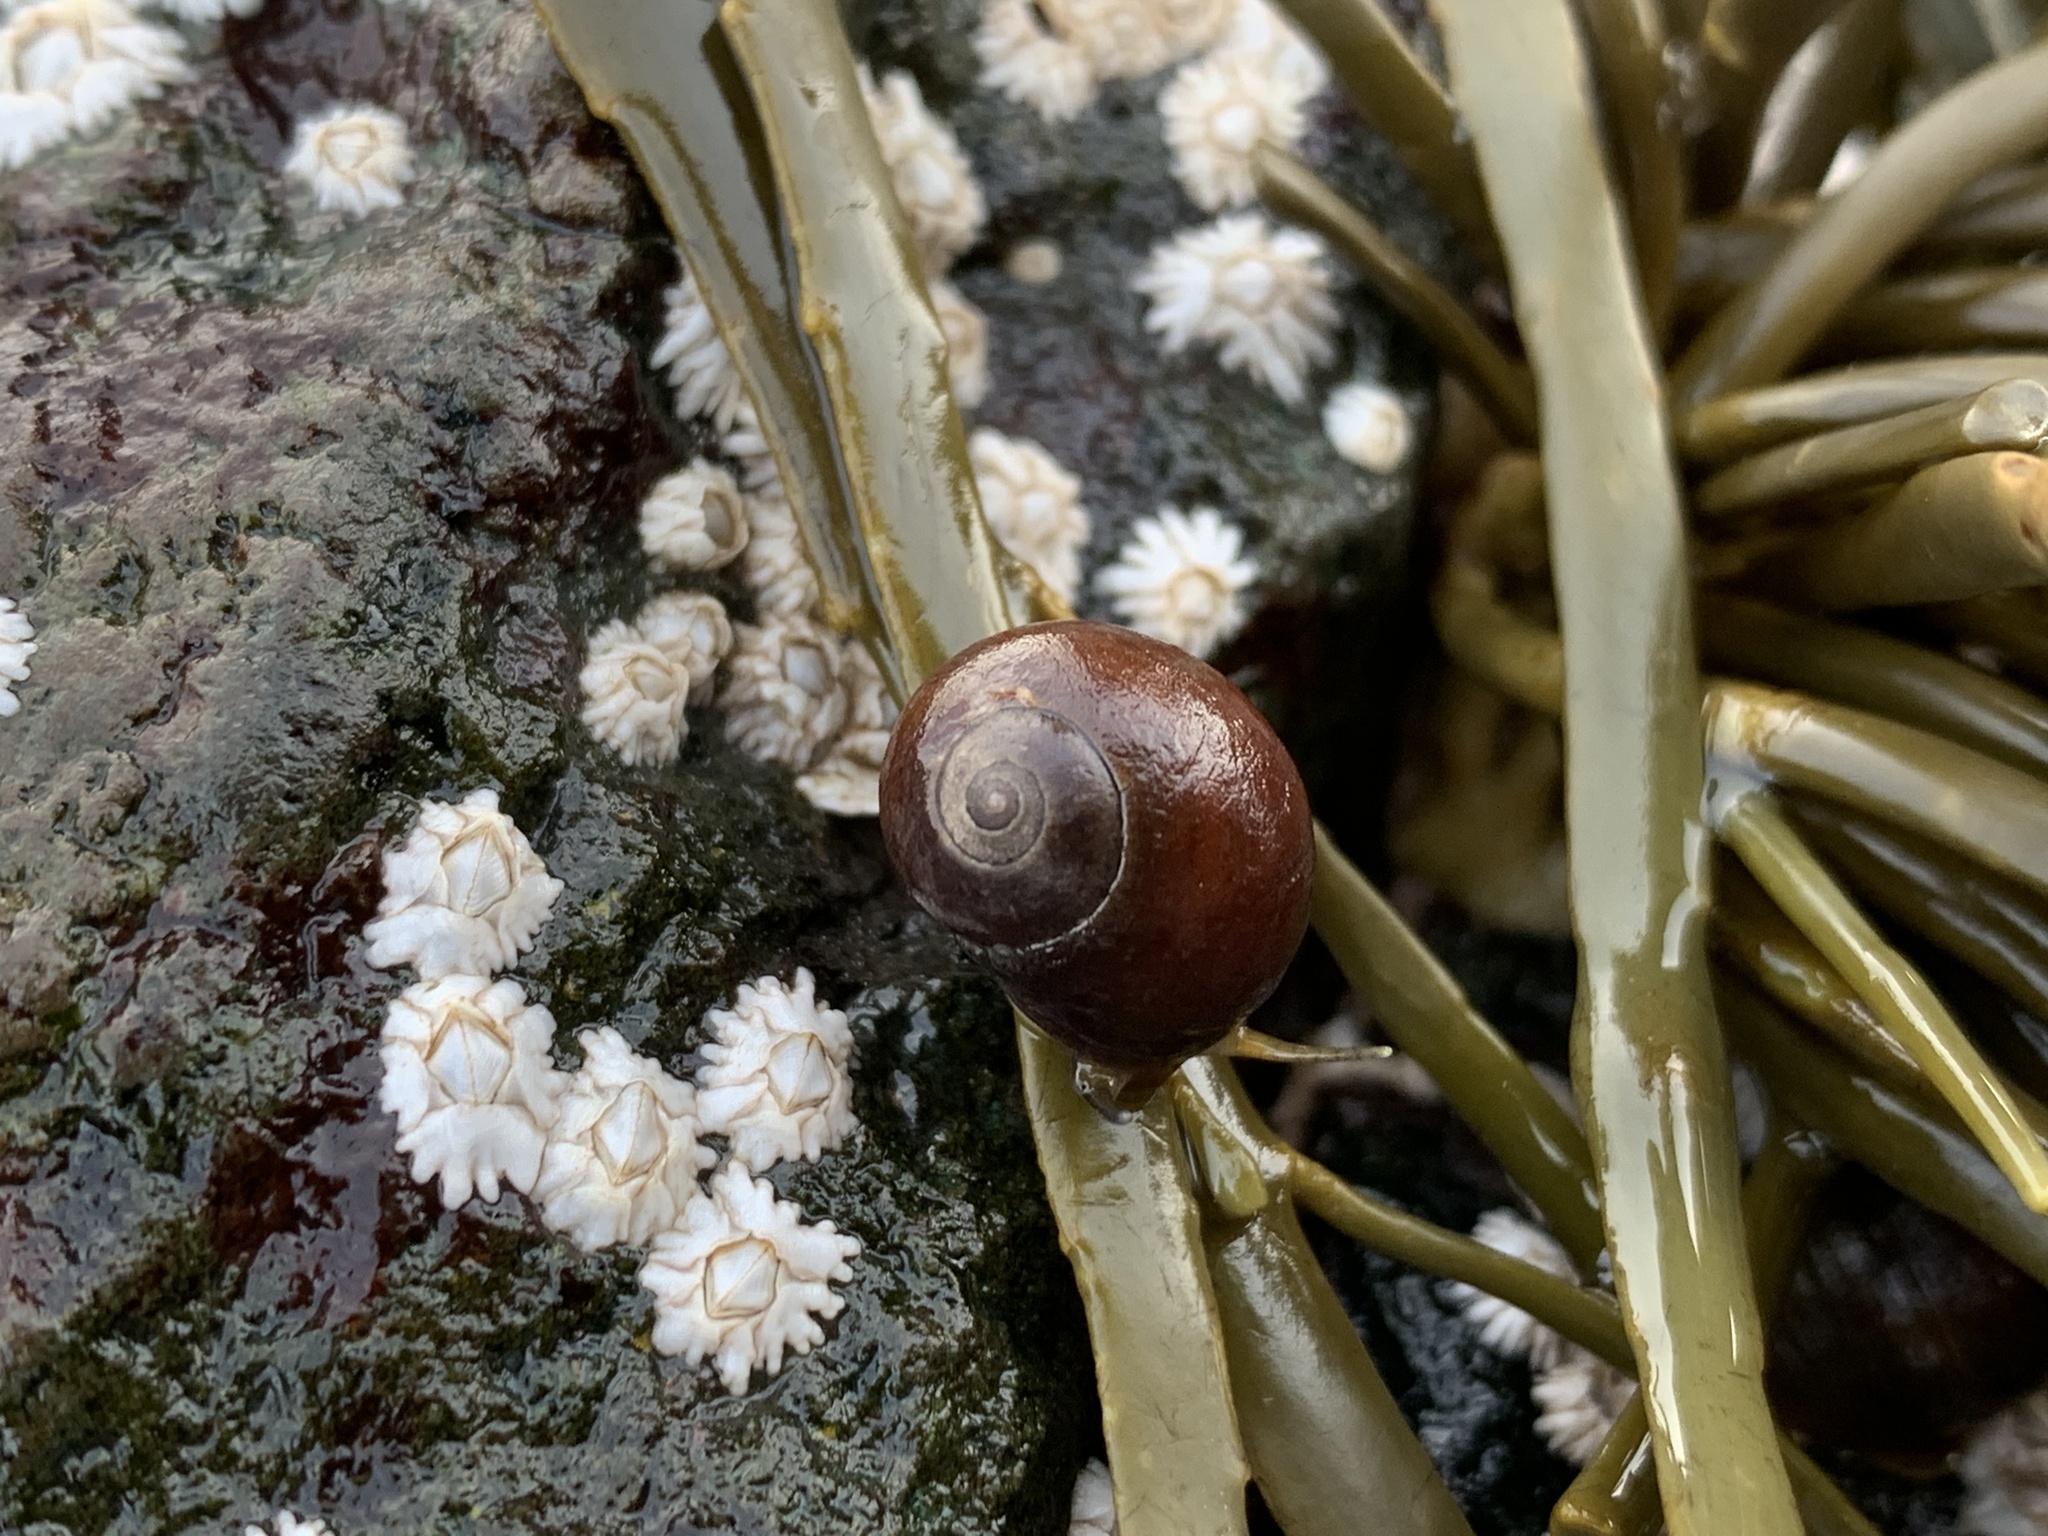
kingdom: Animalia
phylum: Mollusca
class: Gastropoda
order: Littorinimorpha
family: Littorinidae
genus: Littorina
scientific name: Littorina obtusata
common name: Flat periwinkle
